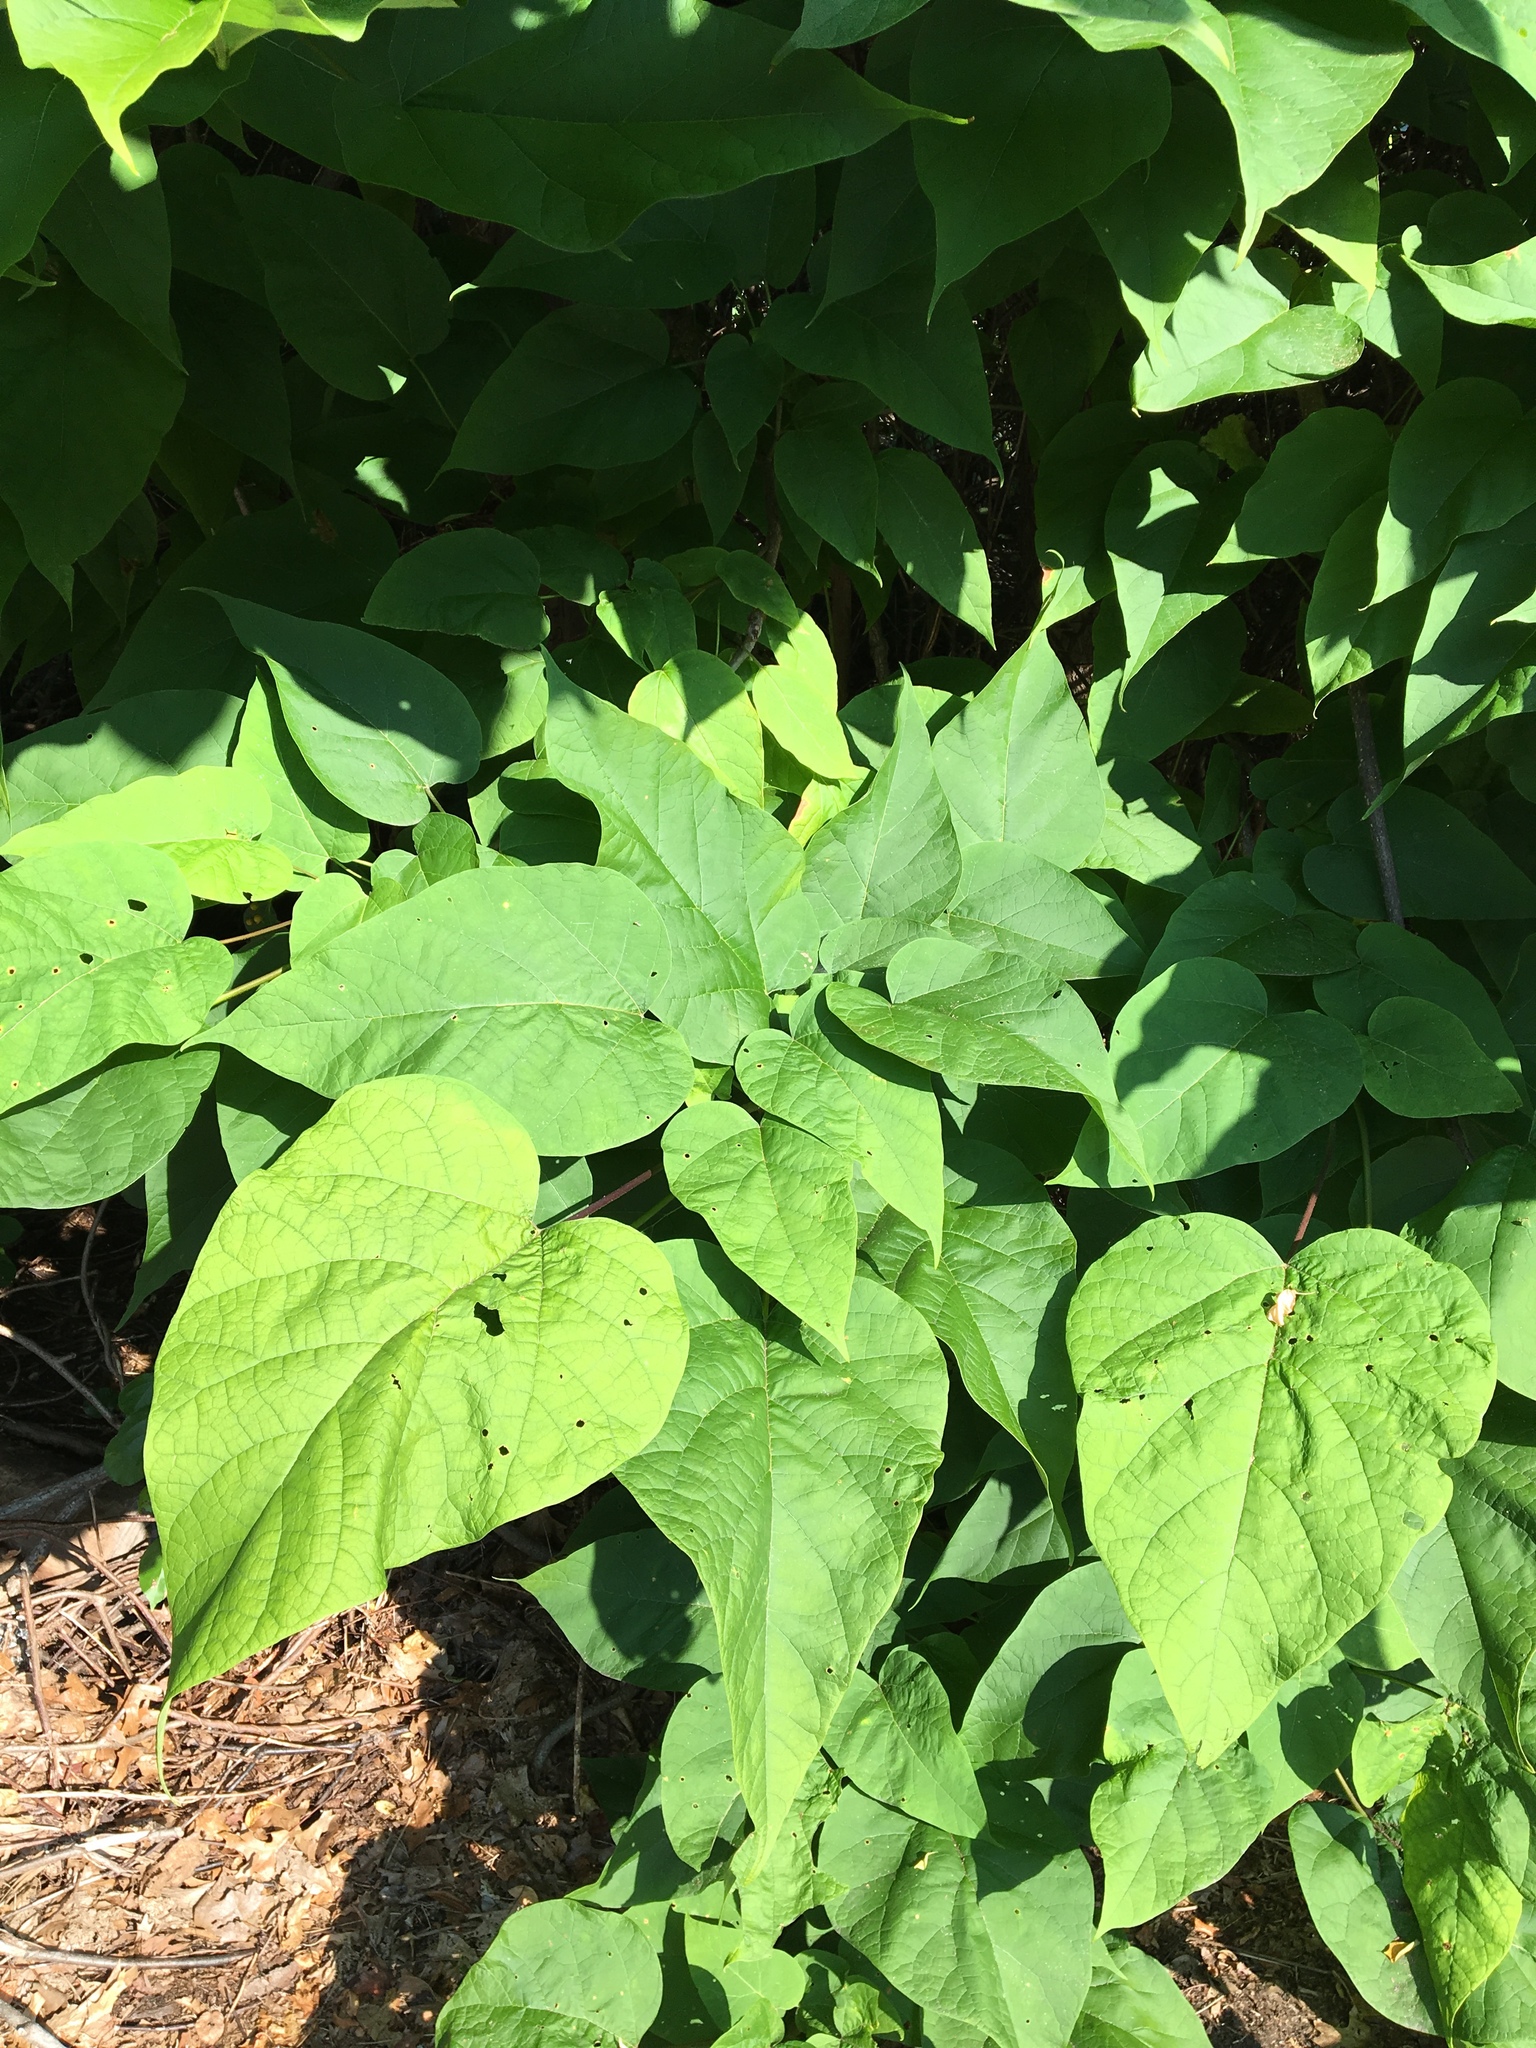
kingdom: Plantae
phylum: Tracheophyta
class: Magnoliopsida
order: Lamiales
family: Bignoniaceae
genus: Catalpa
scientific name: Catalpa speciosa
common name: Northern catalpa
